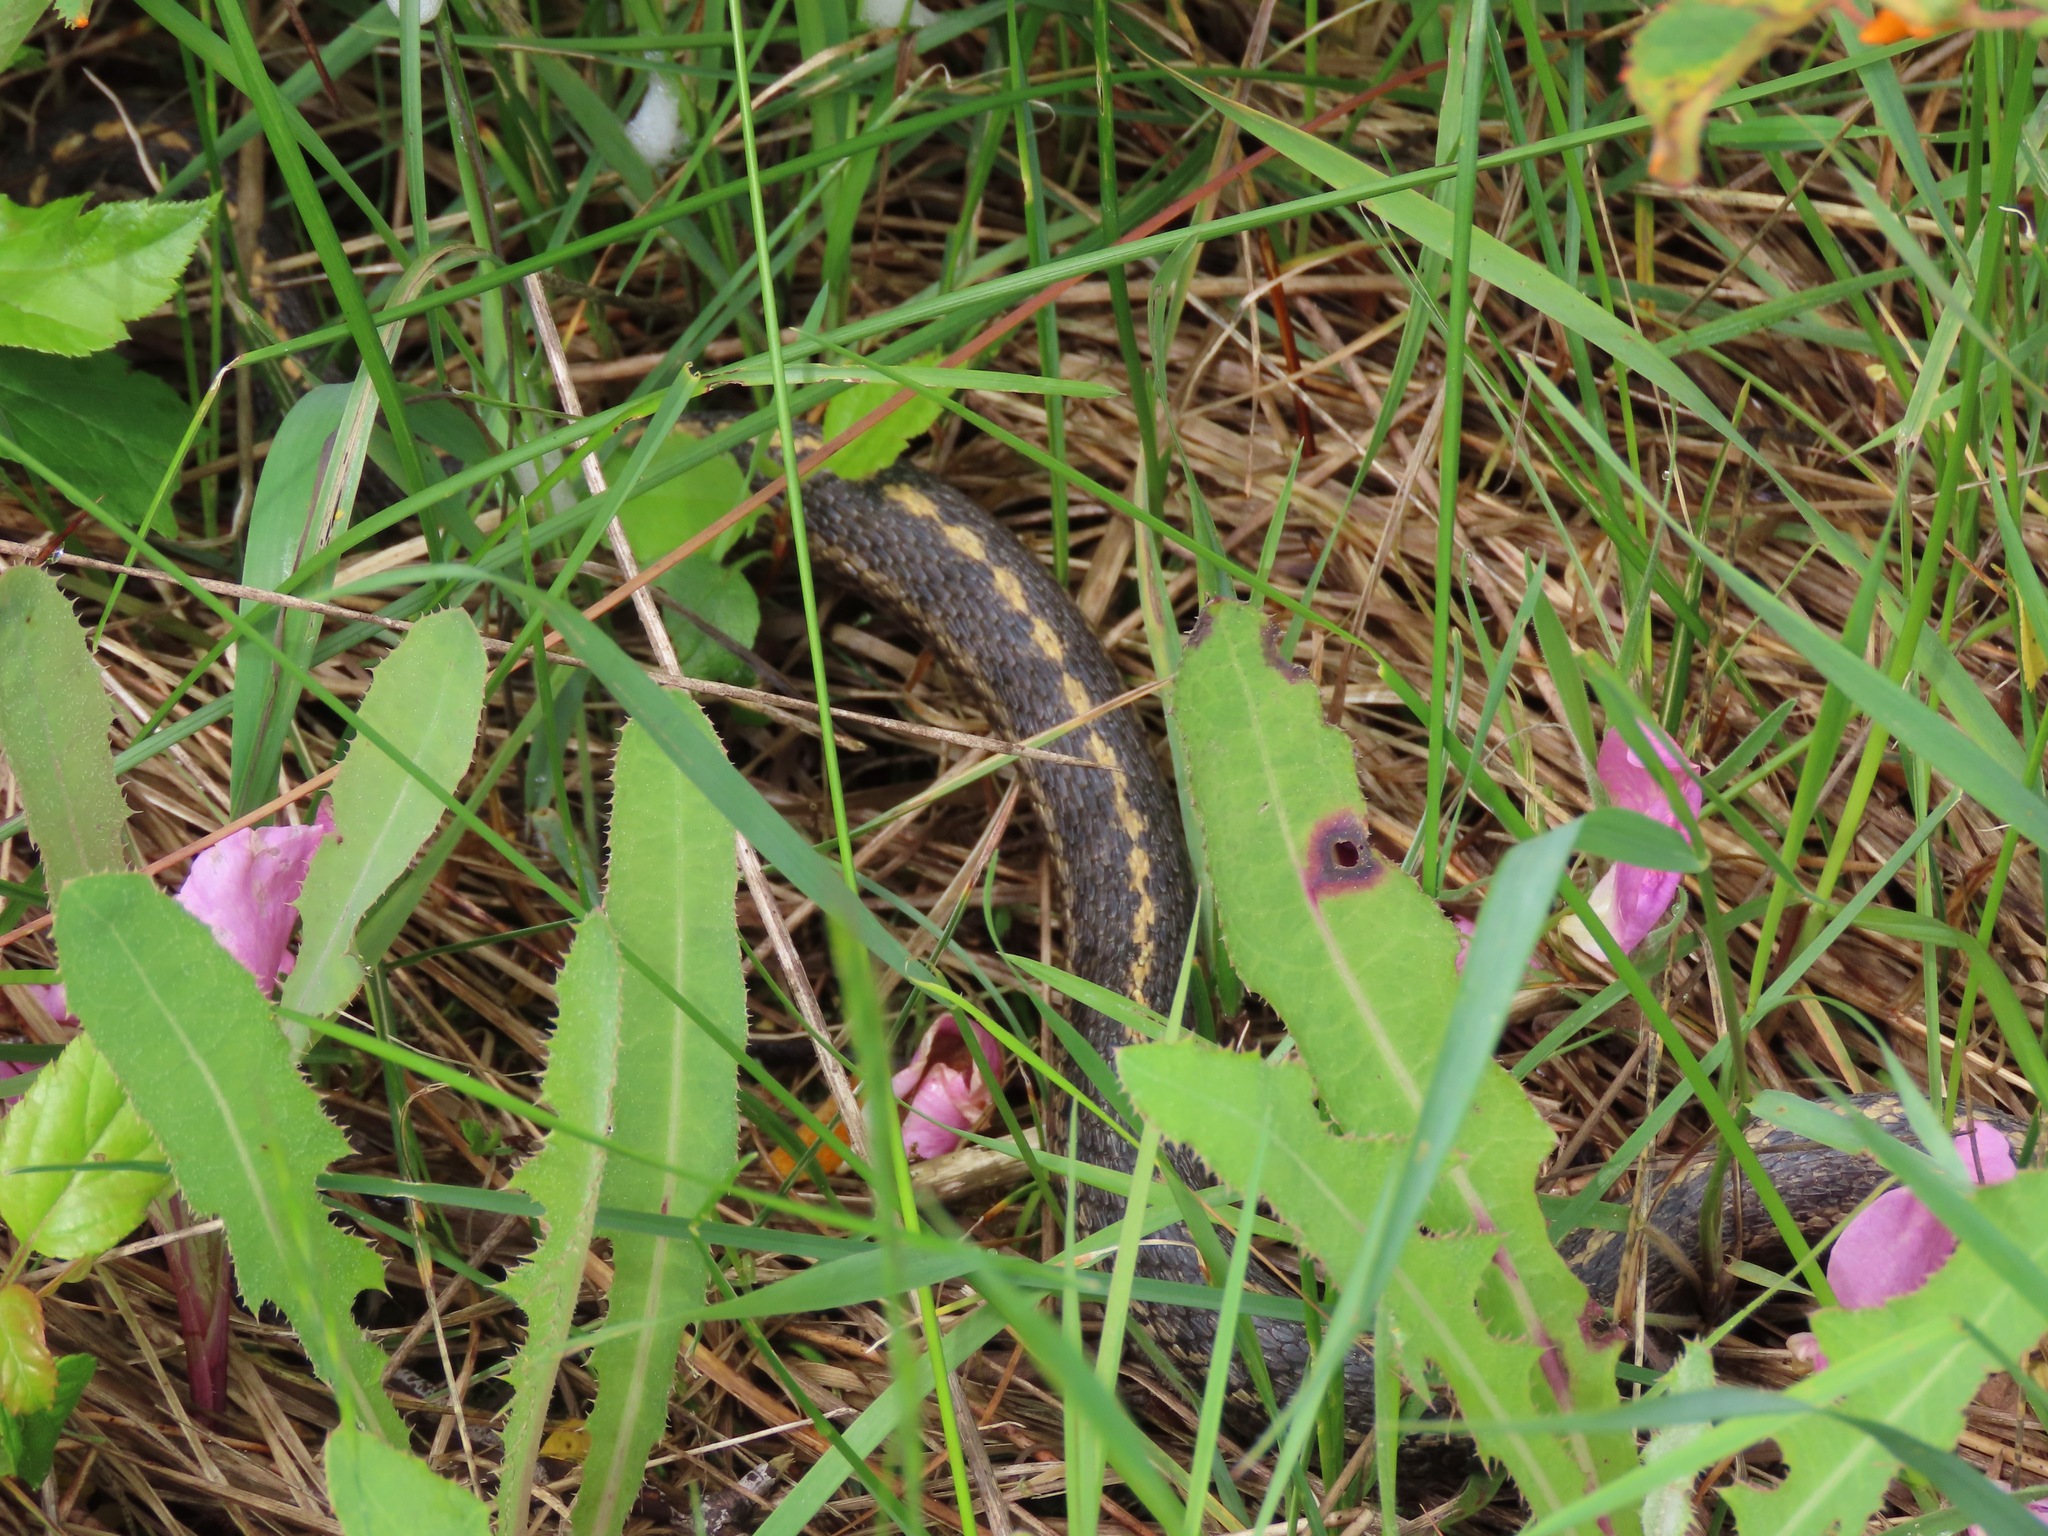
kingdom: Animalia
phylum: Chordata
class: Squamata
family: Colubridae
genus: Thamnophis
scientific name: Thamnophis elegans
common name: Western terrestrial garter snake
